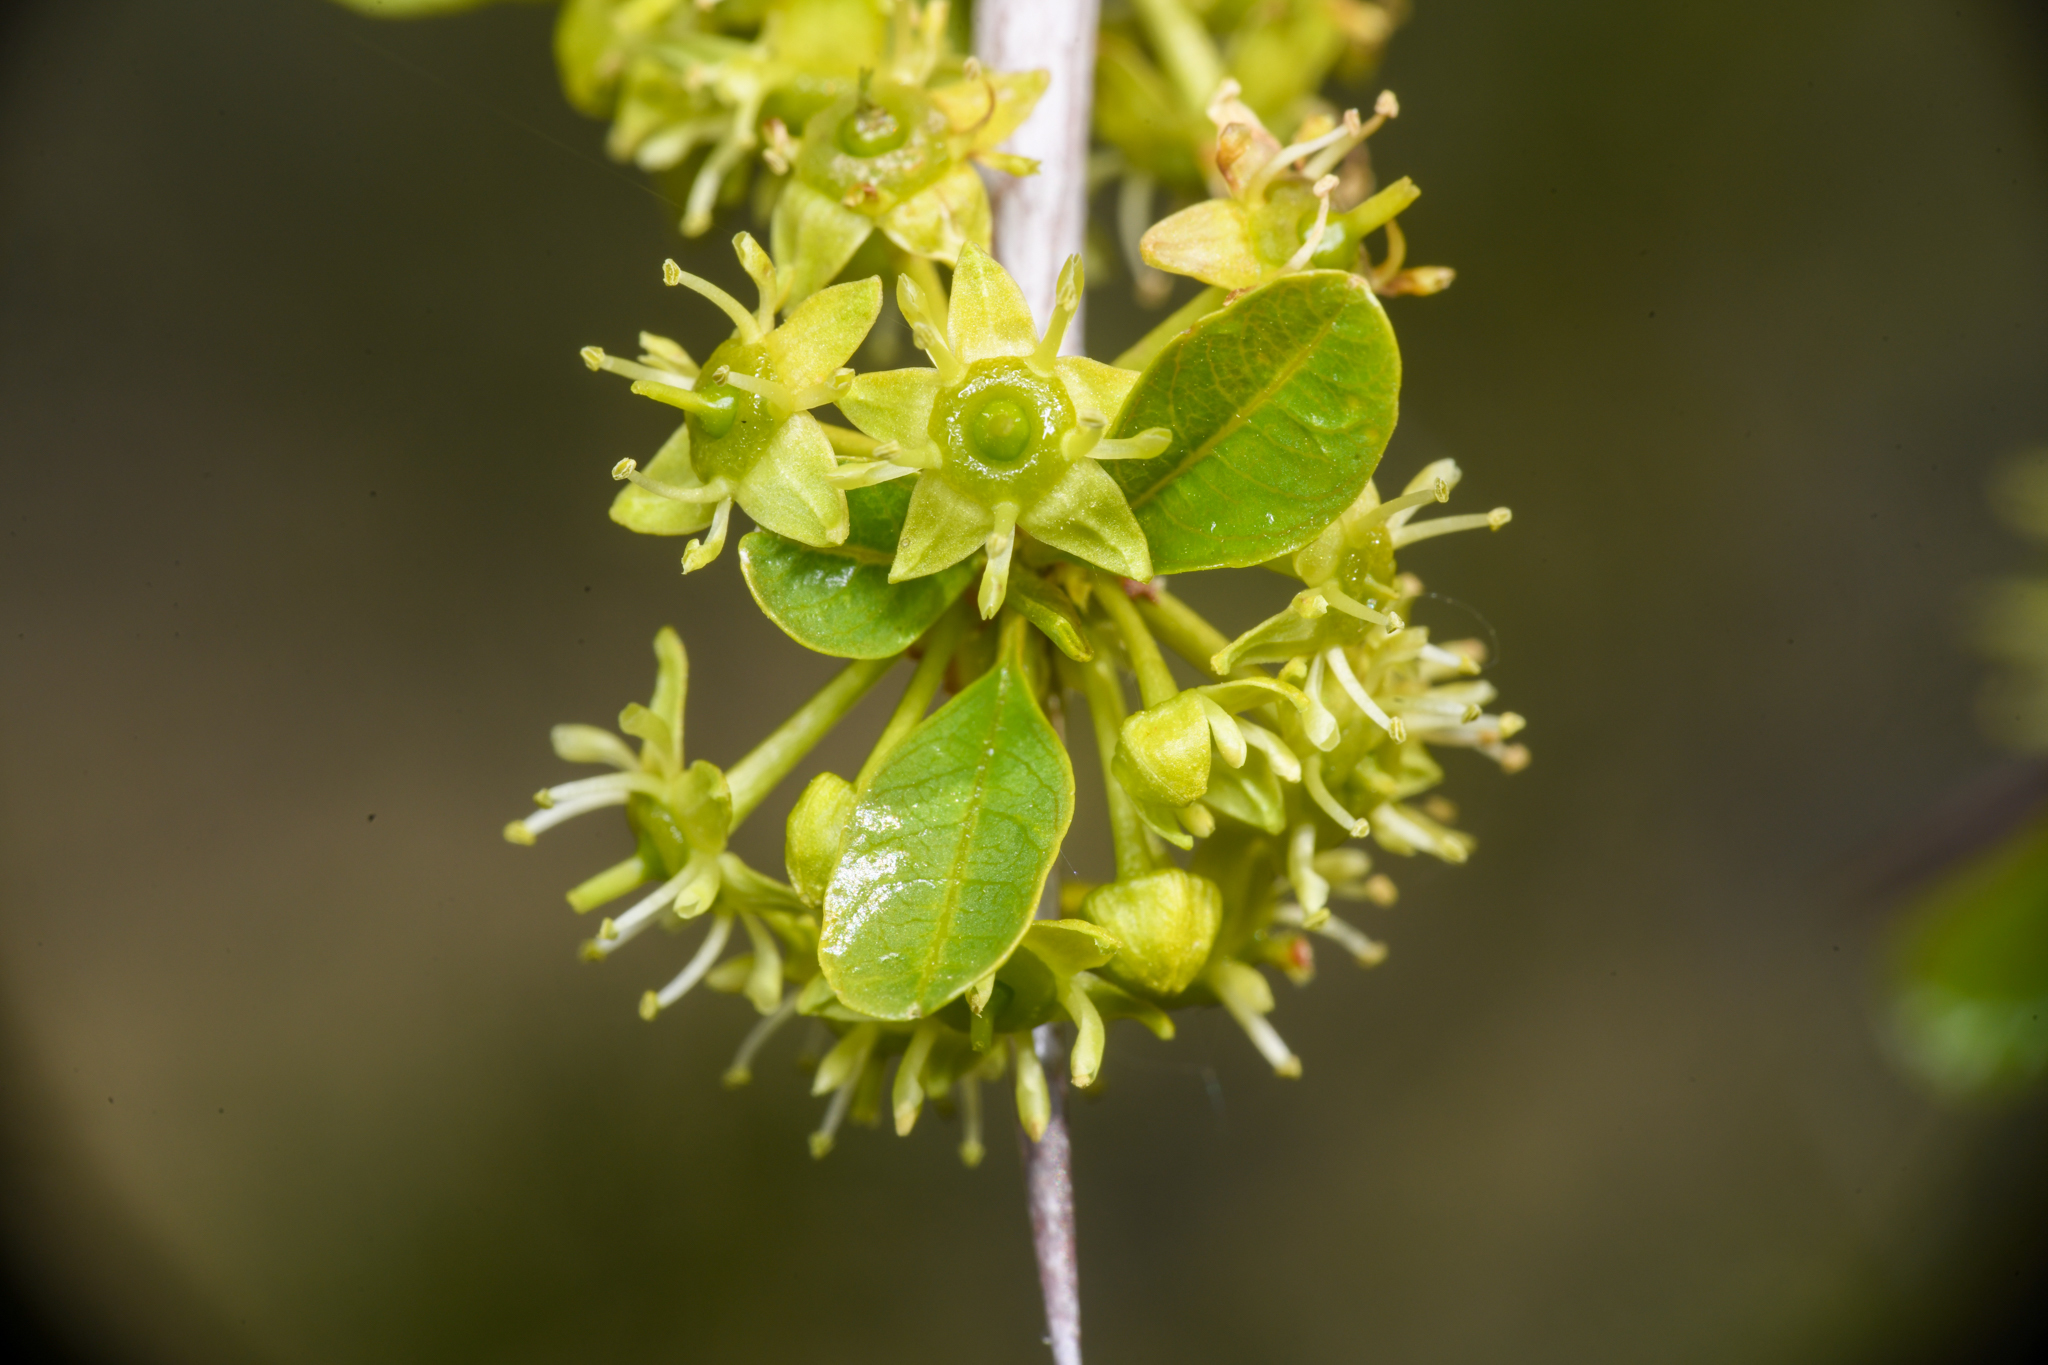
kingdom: Plantae
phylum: Tracheophyta
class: Magnoliopsida
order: Rosales
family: Rhamnaceae
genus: Pseudoziziphus
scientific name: Pseudoziziphus parryi
